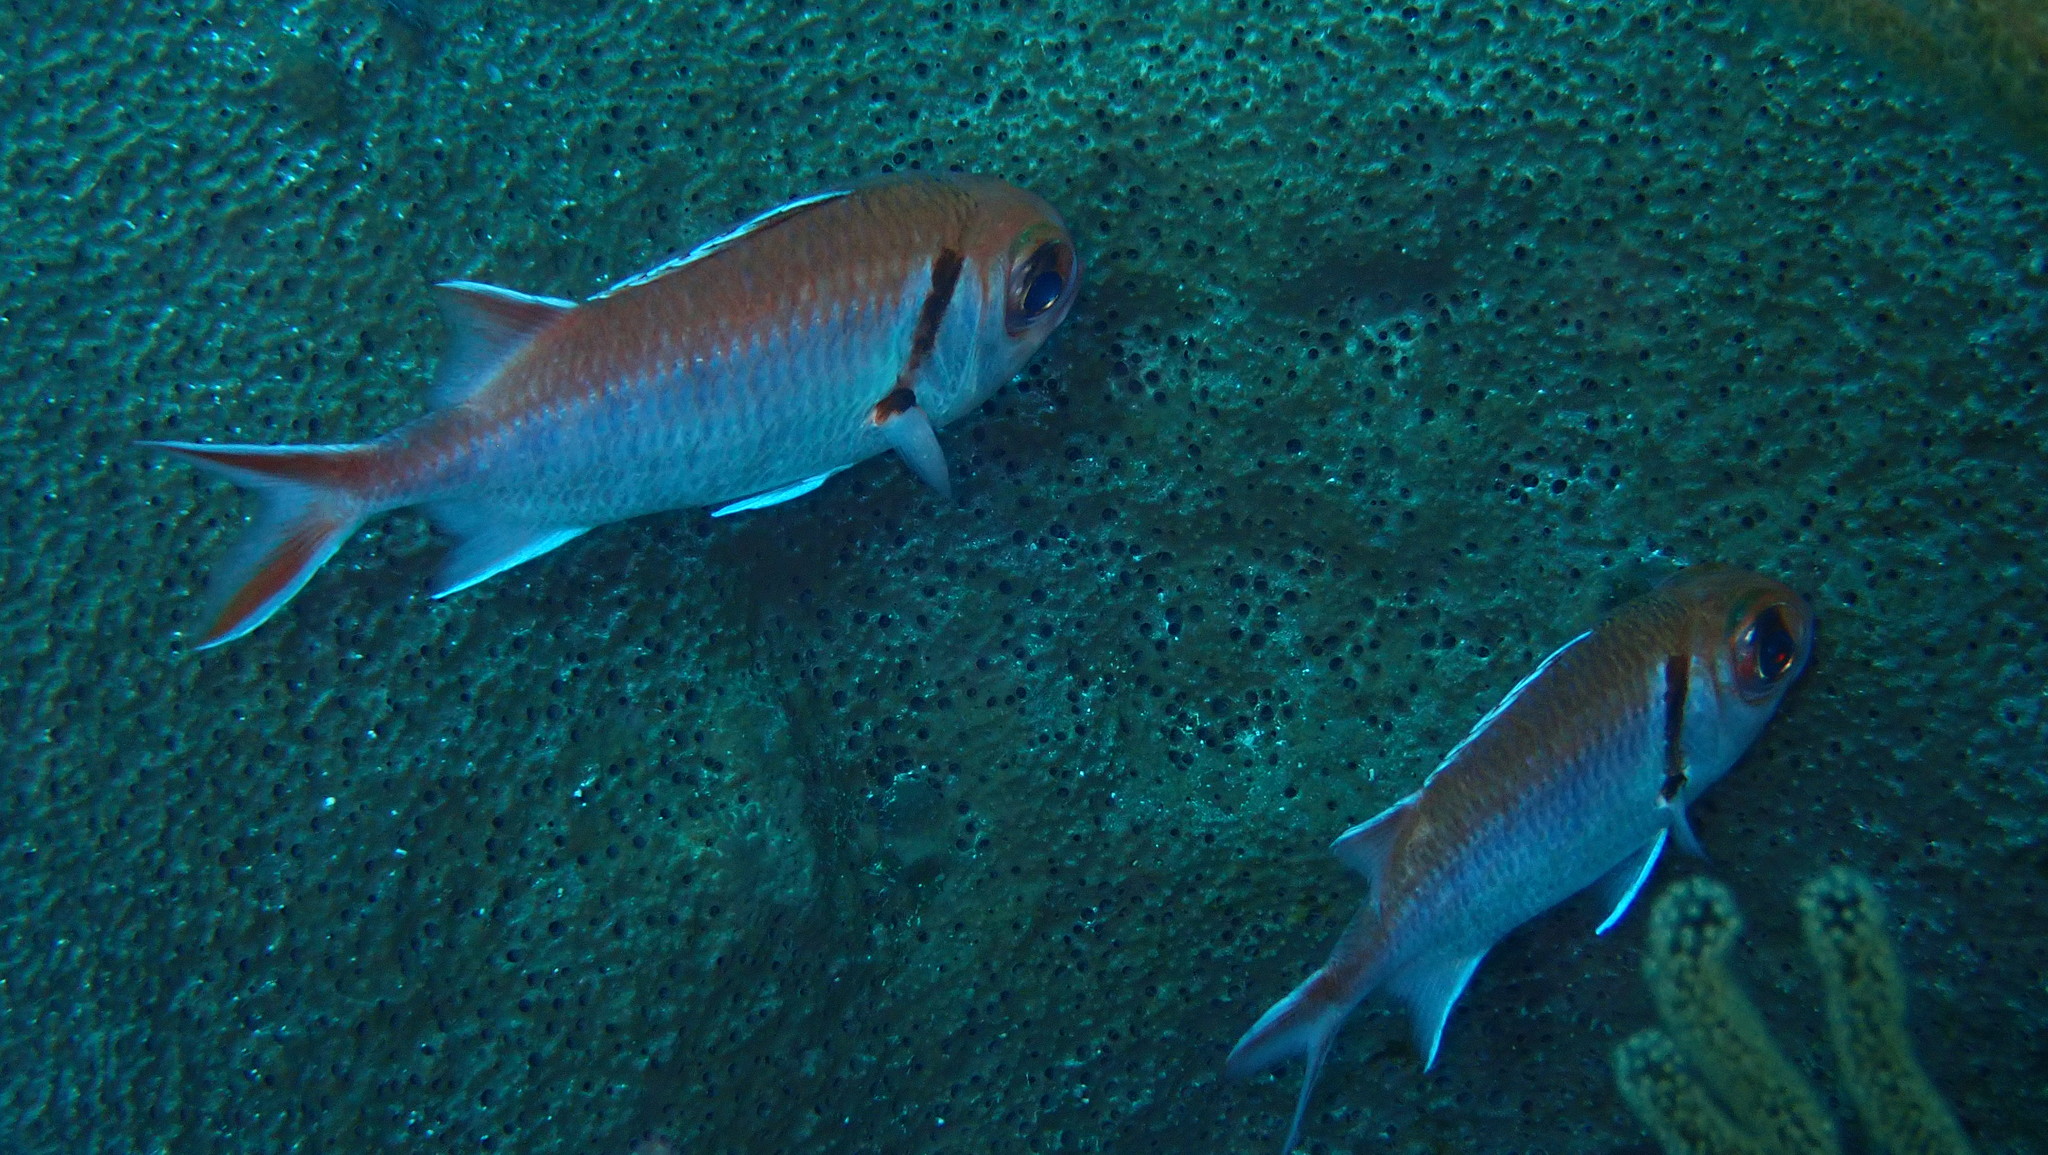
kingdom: Animalia
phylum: Chordata
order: Beryciformes
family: Holocentridae
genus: Myripristis
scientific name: Myripristis jacobus
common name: Blackbar soldierfish
